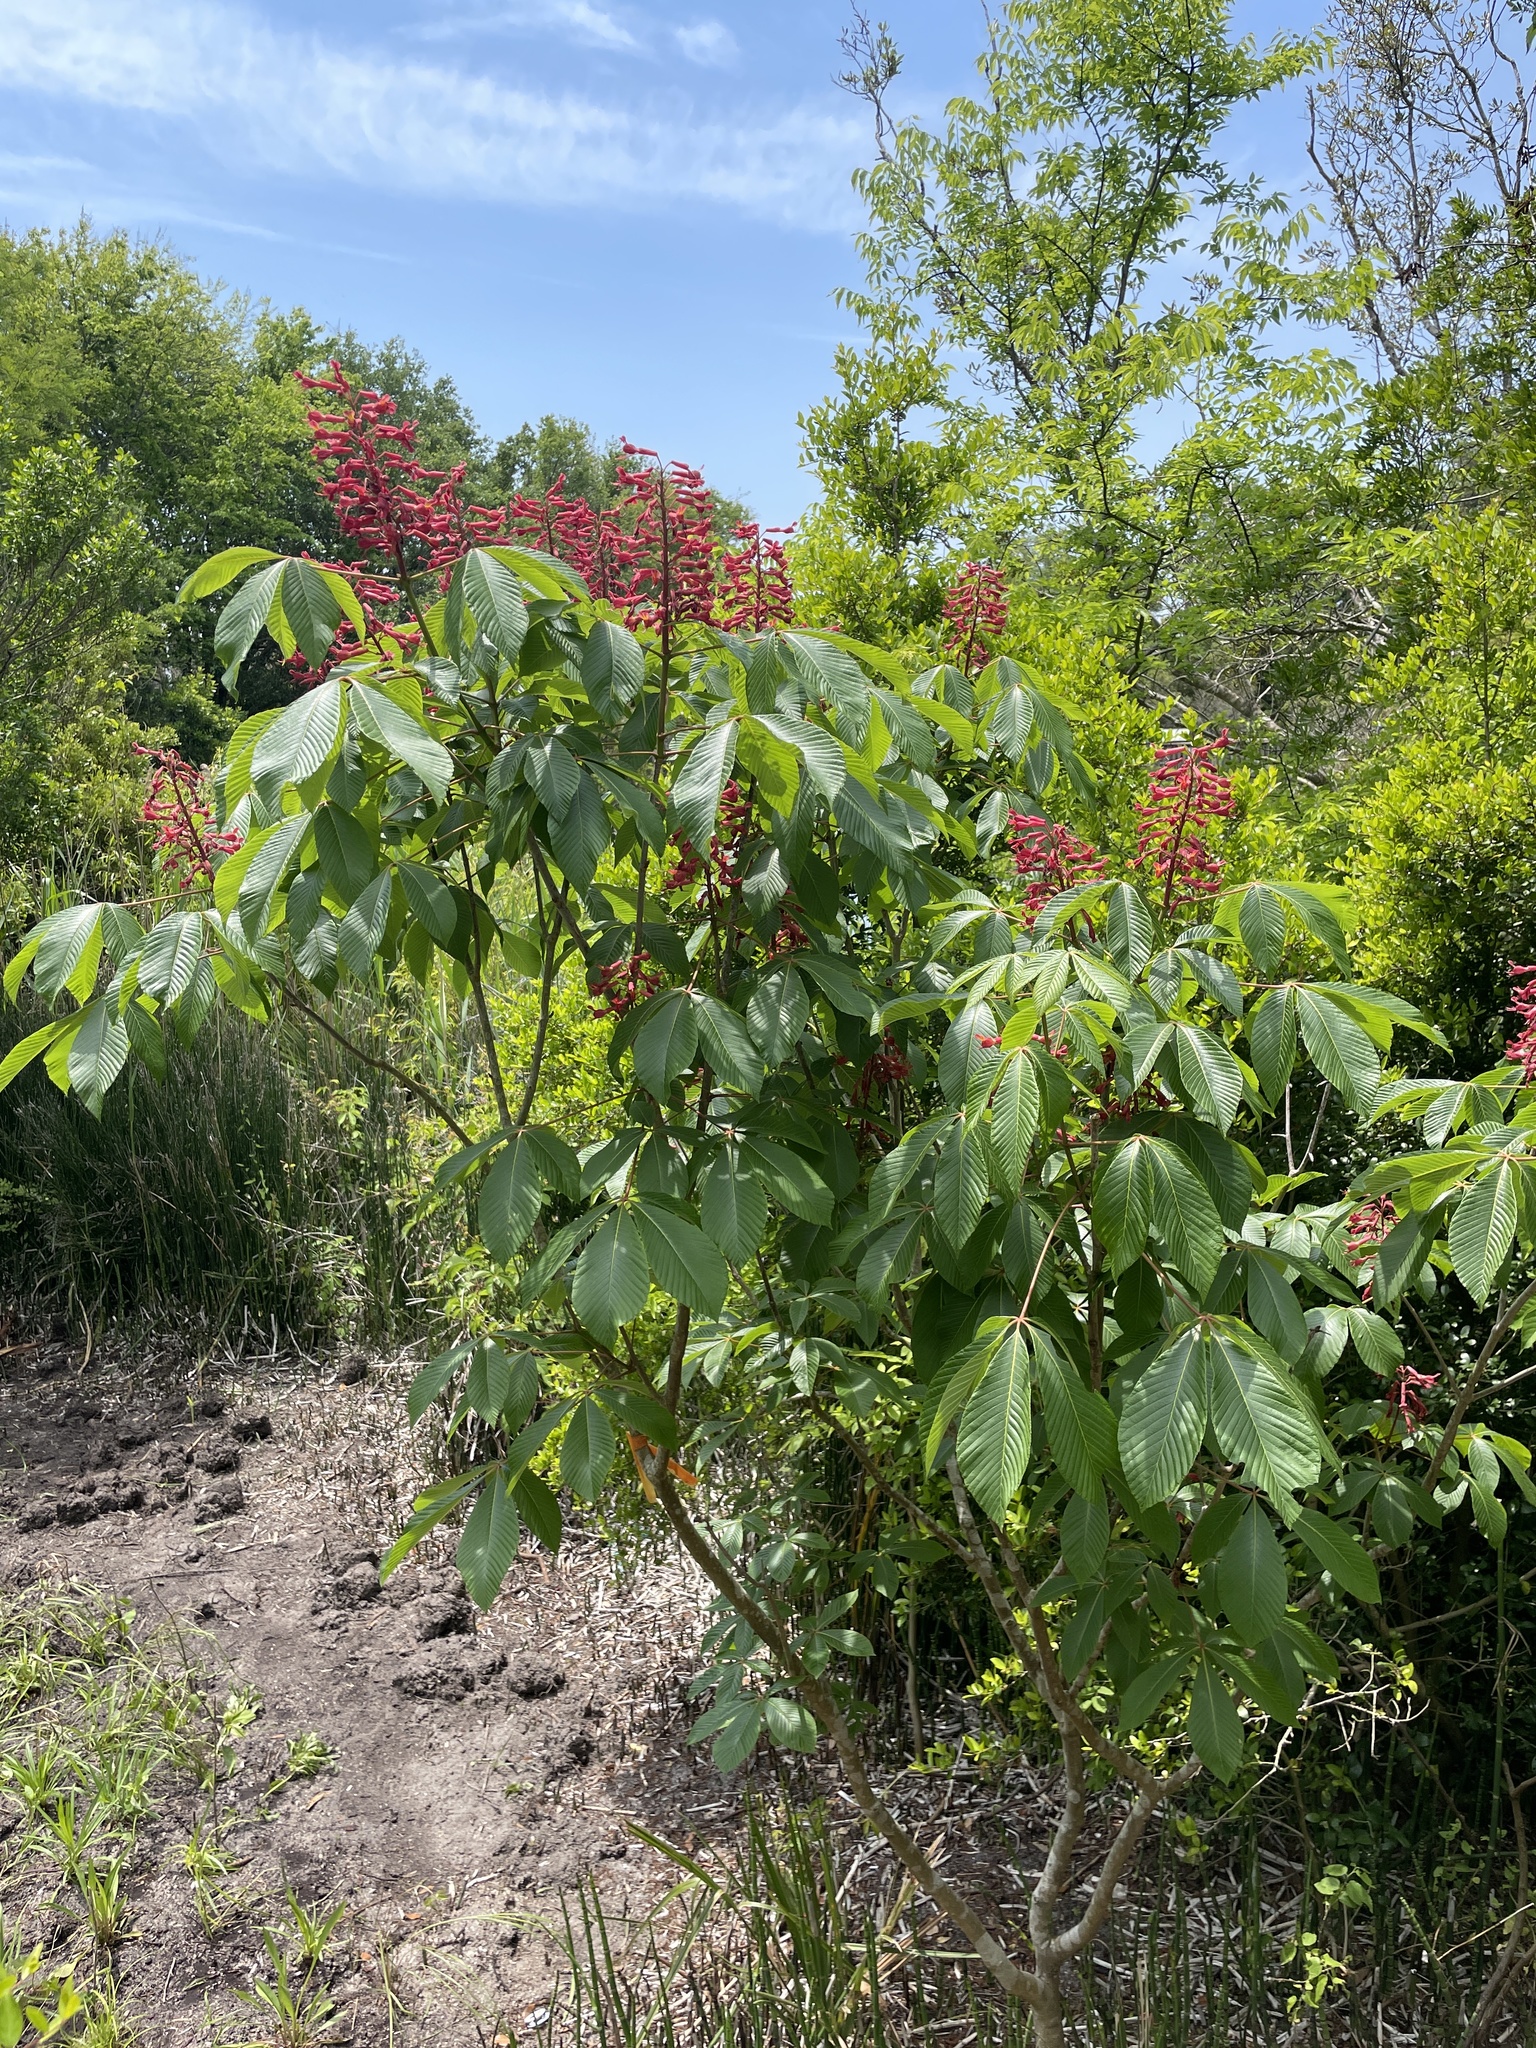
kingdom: Plantae
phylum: Tracheophyta
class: Magnoliopsida
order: Sapindales
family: Sapindaceae
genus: Aesculus
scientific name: Aesculus pavia
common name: Red buckeye
